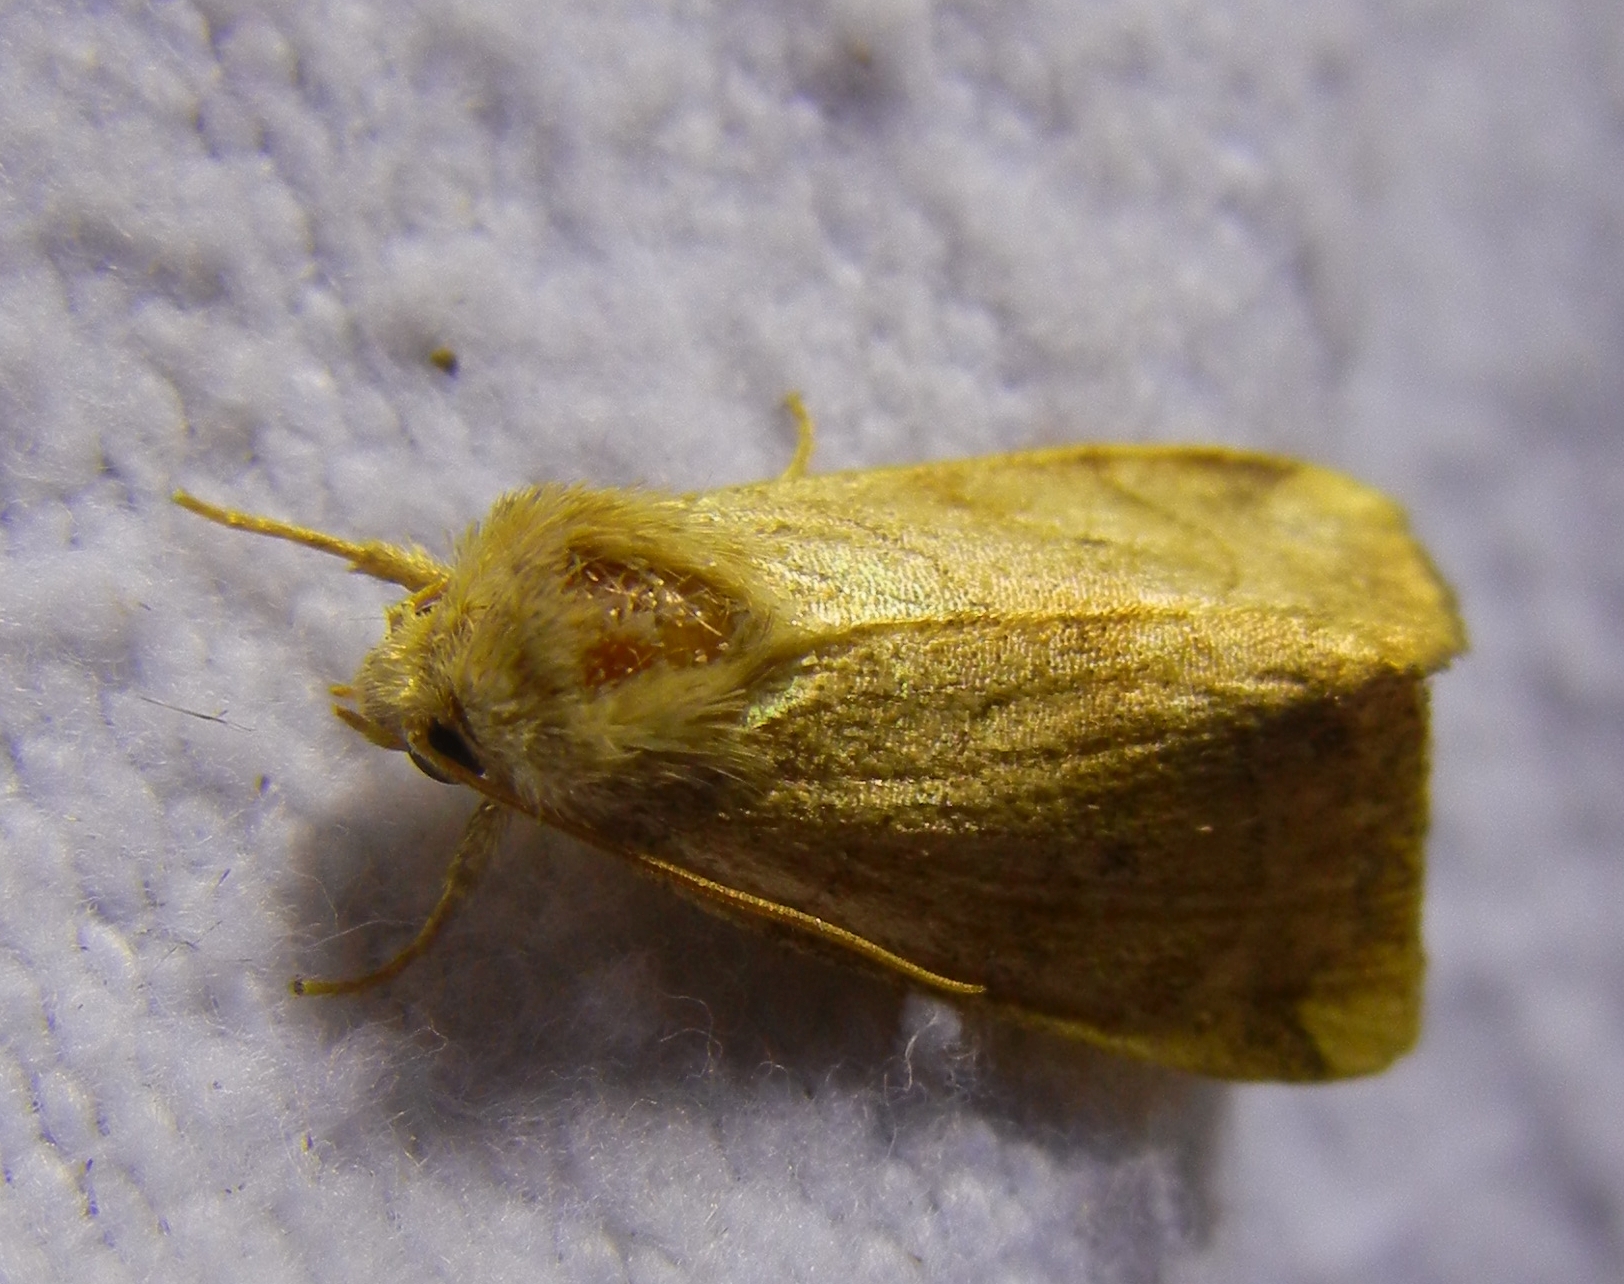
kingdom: Animalia
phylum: Arthropoda
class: Insecta
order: Lepidoptera
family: Noctuidae
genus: Cosmia
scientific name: Cosmia trapezina
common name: Dun-bar
